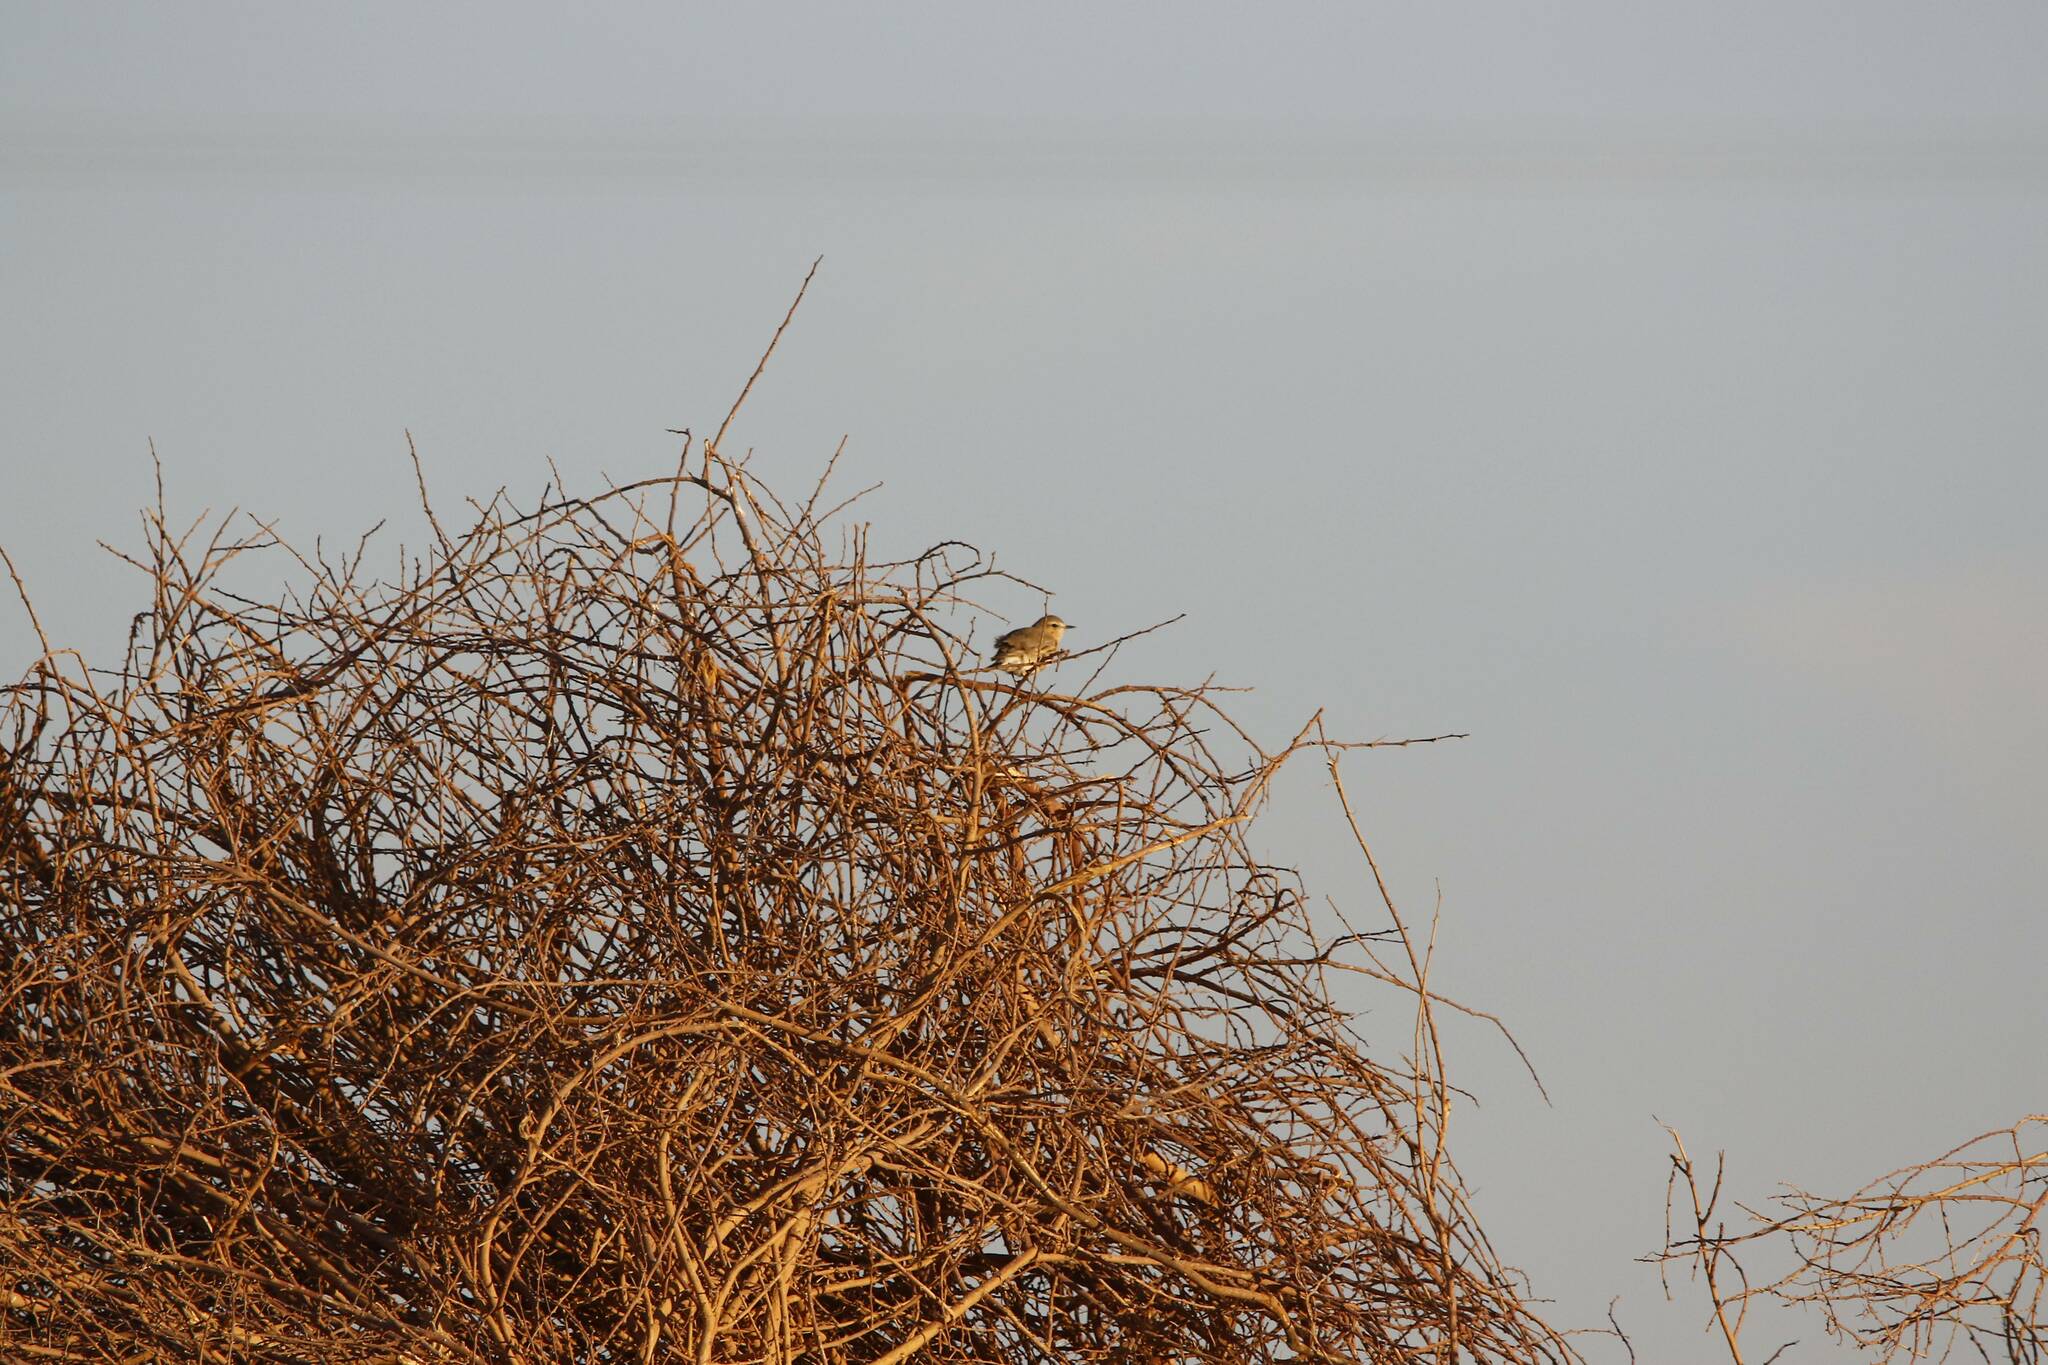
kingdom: Animalia
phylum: Chordata
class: Aves
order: Passeriformes
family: Muscicapidae
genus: Oenanthe
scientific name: Oenanthe isabellina
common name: Isabelline wheatear
